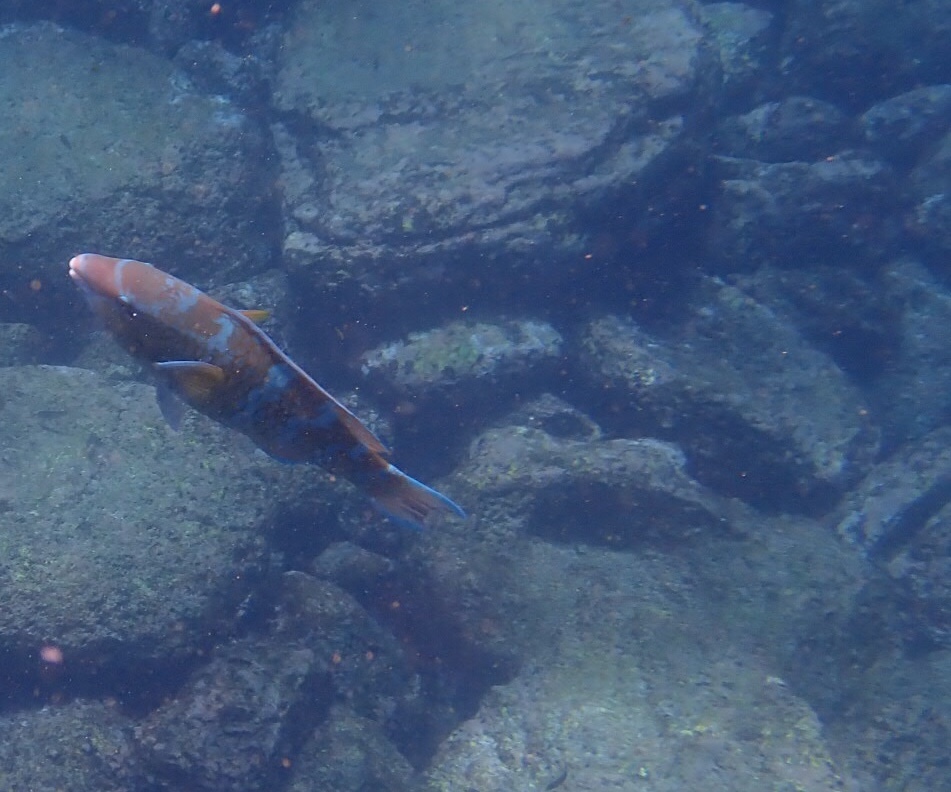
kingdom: Animalia
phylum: Chordata
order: Perciformes
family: Scaridae
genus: Scarus
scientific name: Scarus ghobban
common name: Blue-barred parrotfish
